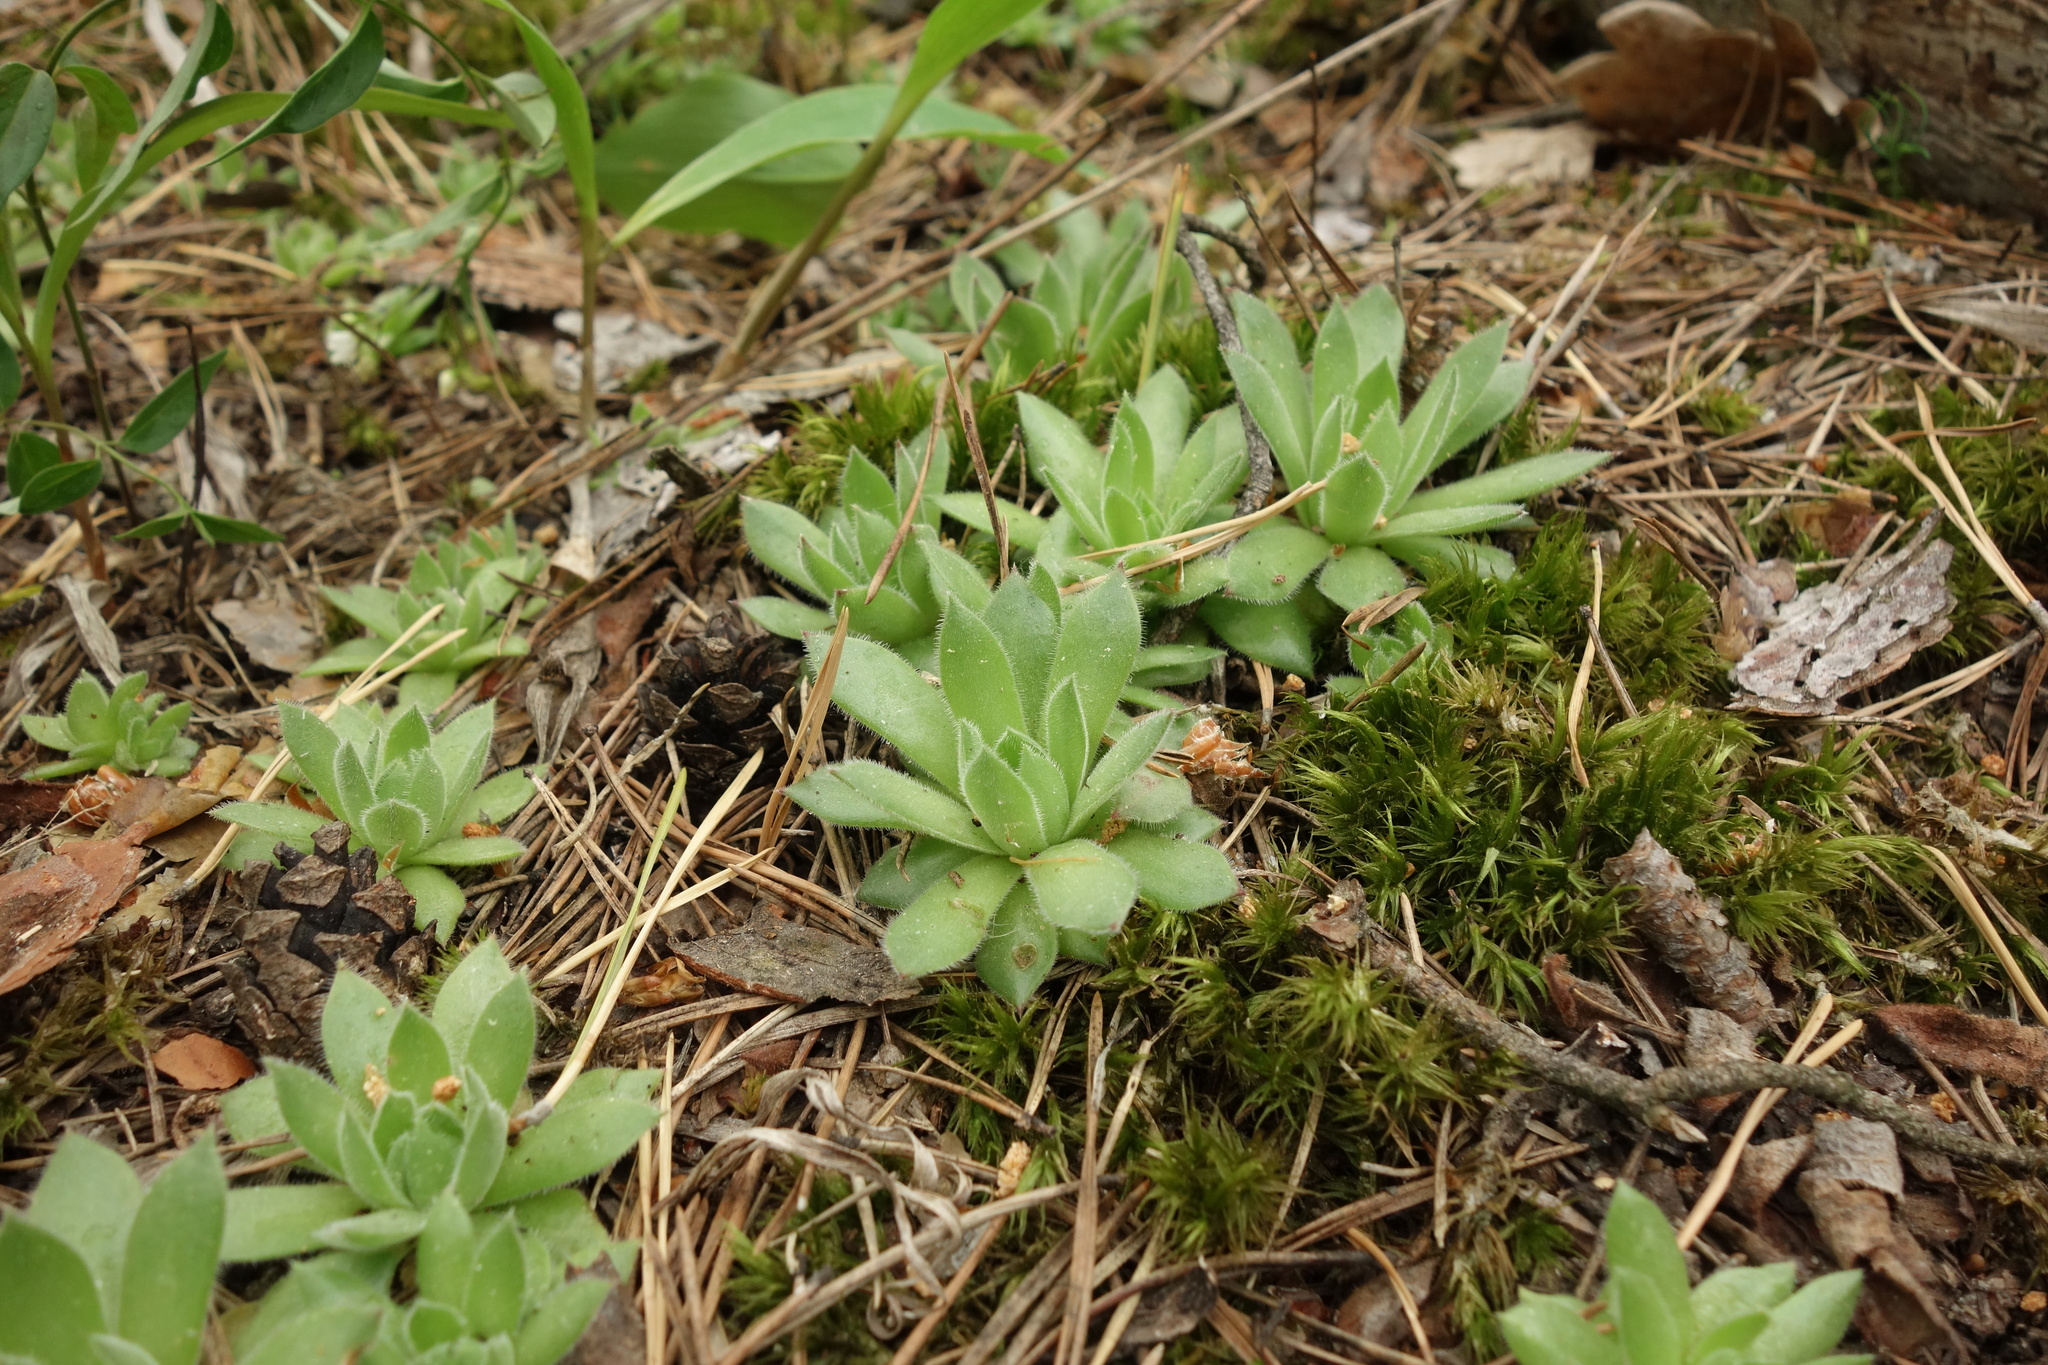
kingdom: Plantae
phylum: Tracheophyta
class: Magnoliopsida
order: Saxifragales
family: Crassulaceae
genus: Sempervivum
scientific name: Sempervivum ruthenicum
